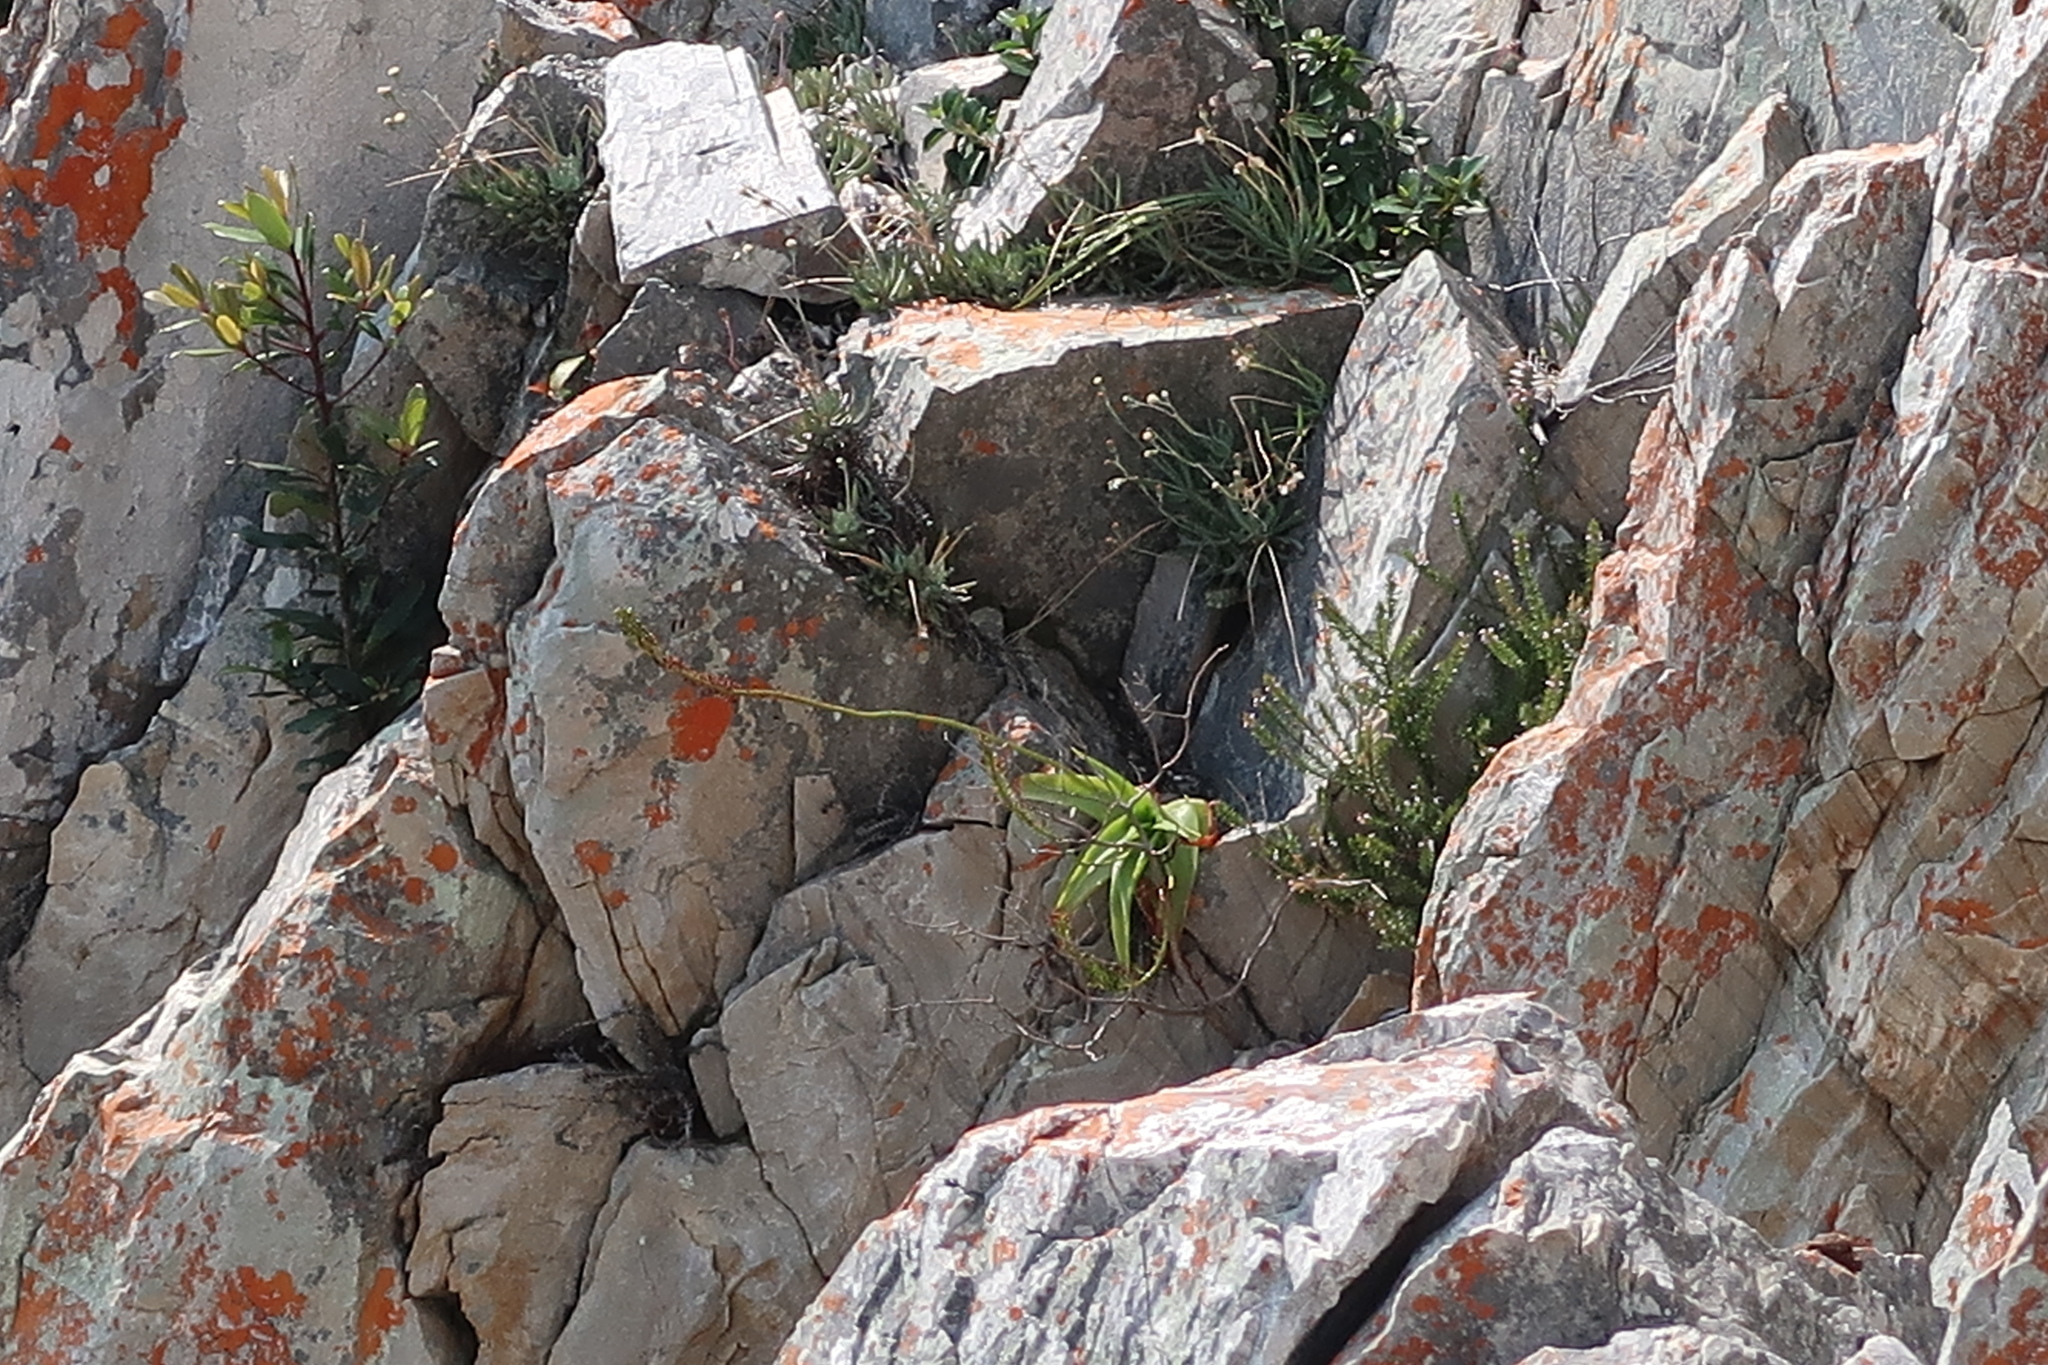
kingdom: Plantae
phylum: Tracheophyta
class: Magnoliopsida
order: Ericales
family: Primulaceae
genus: Myrsine
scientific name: Myrsine melanophloeos
